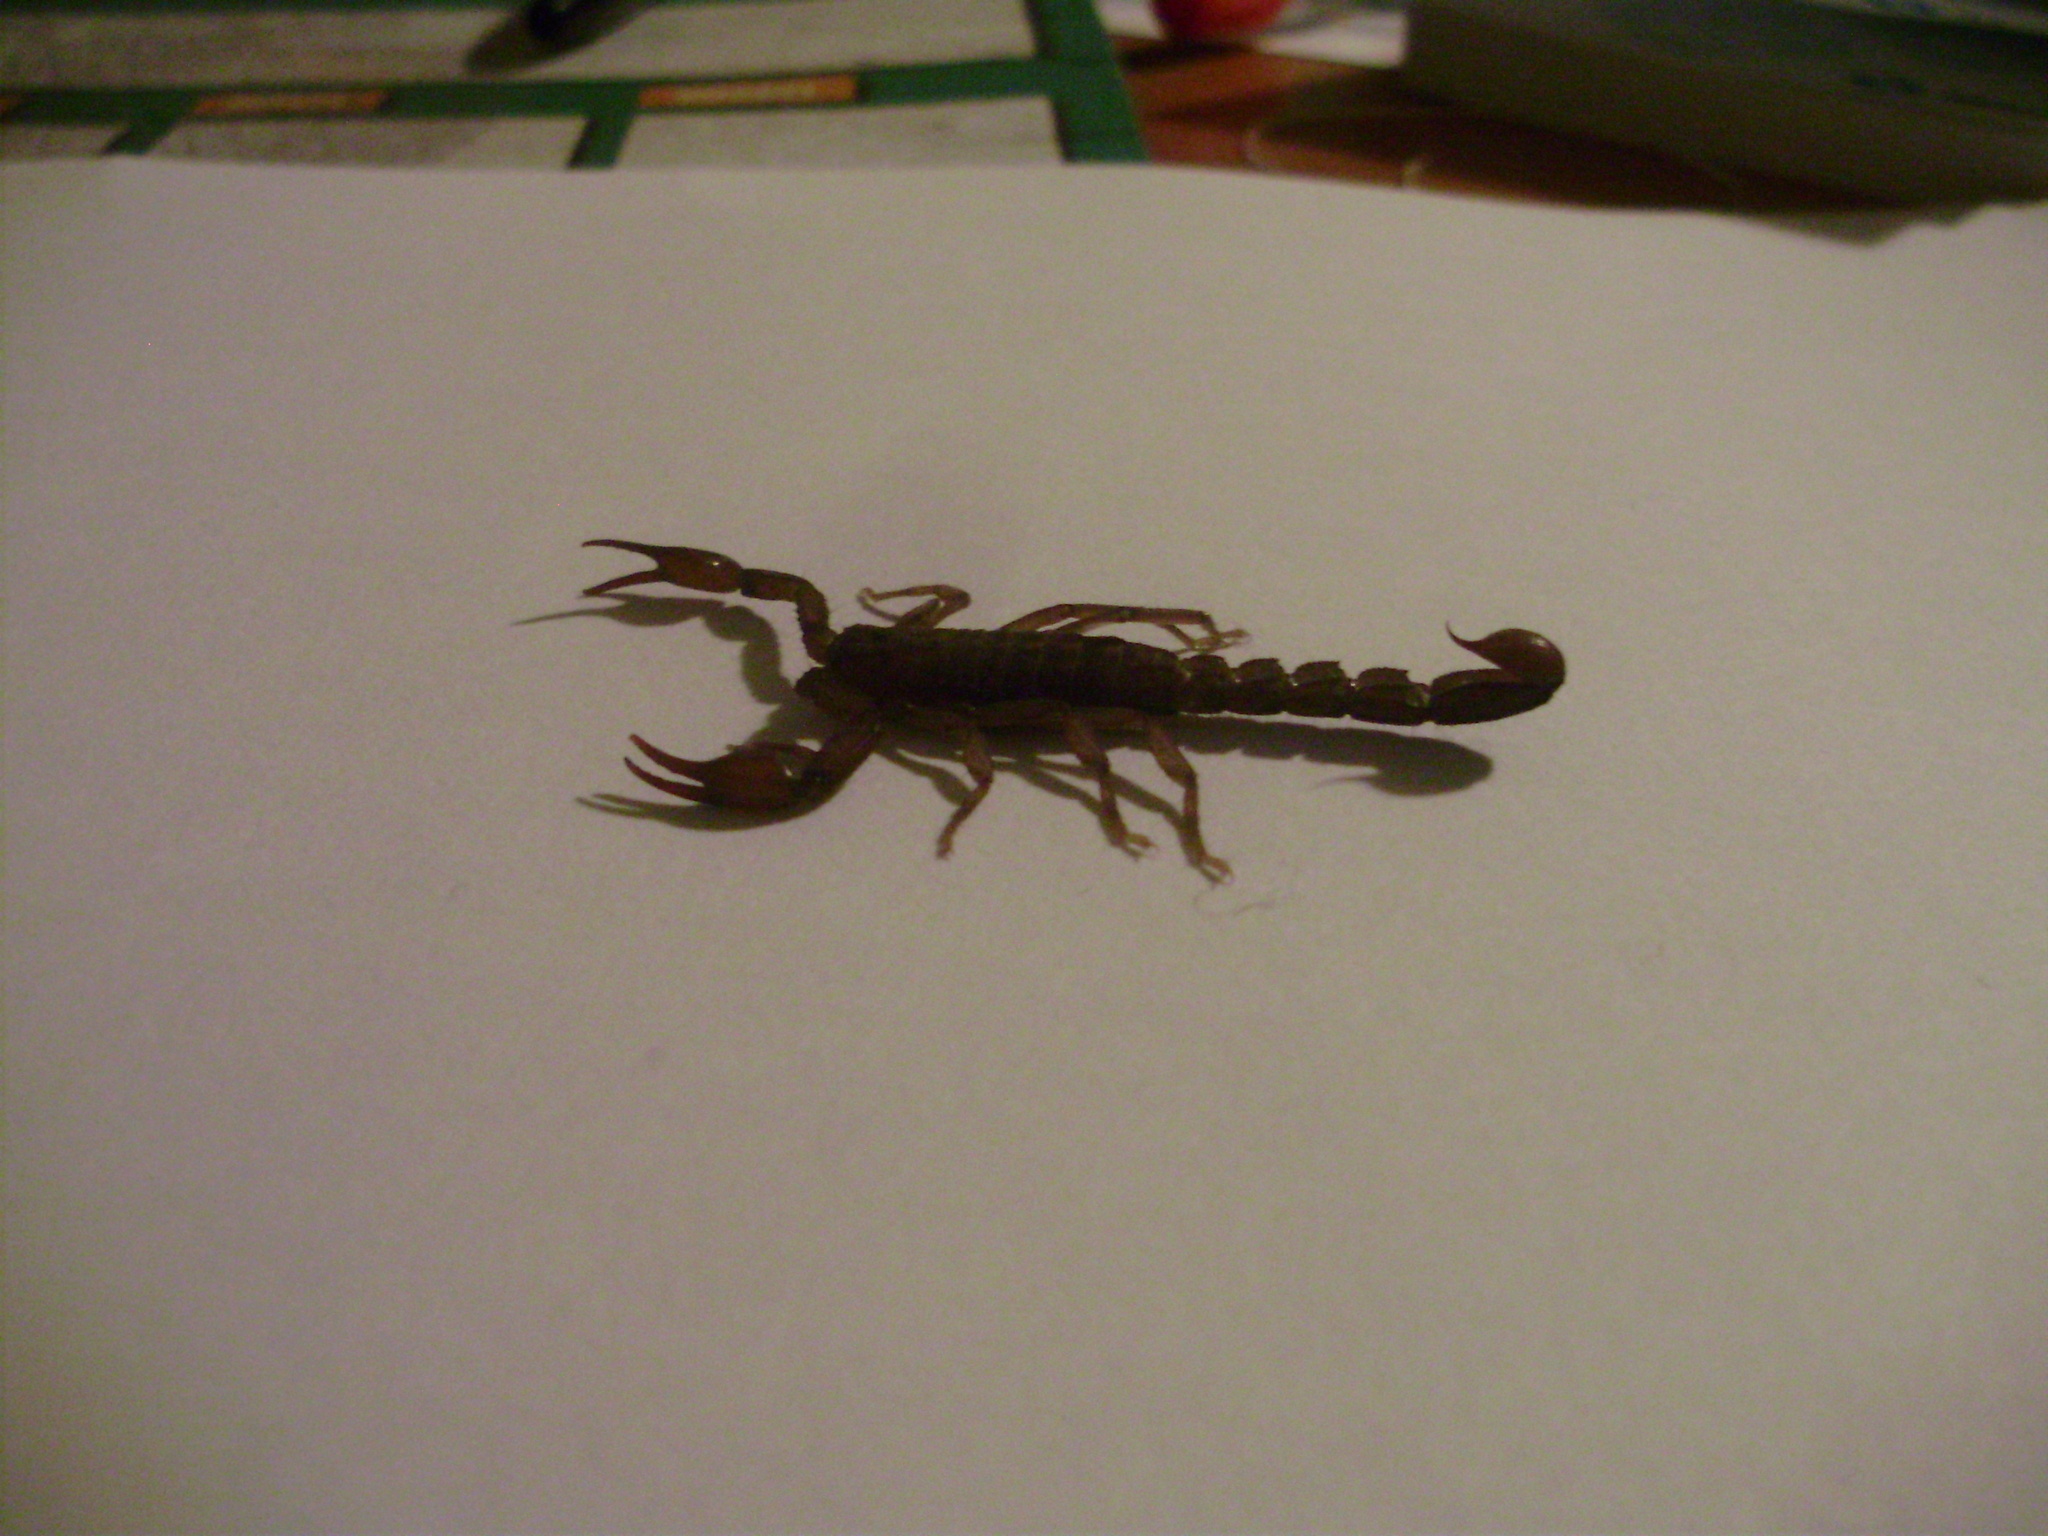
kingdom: Animalia
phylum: Arthropoda
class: Arachnida
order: Scorpiones
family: Vaejovidae
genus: Vaejovis
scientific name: Vaejovis mexicanus
